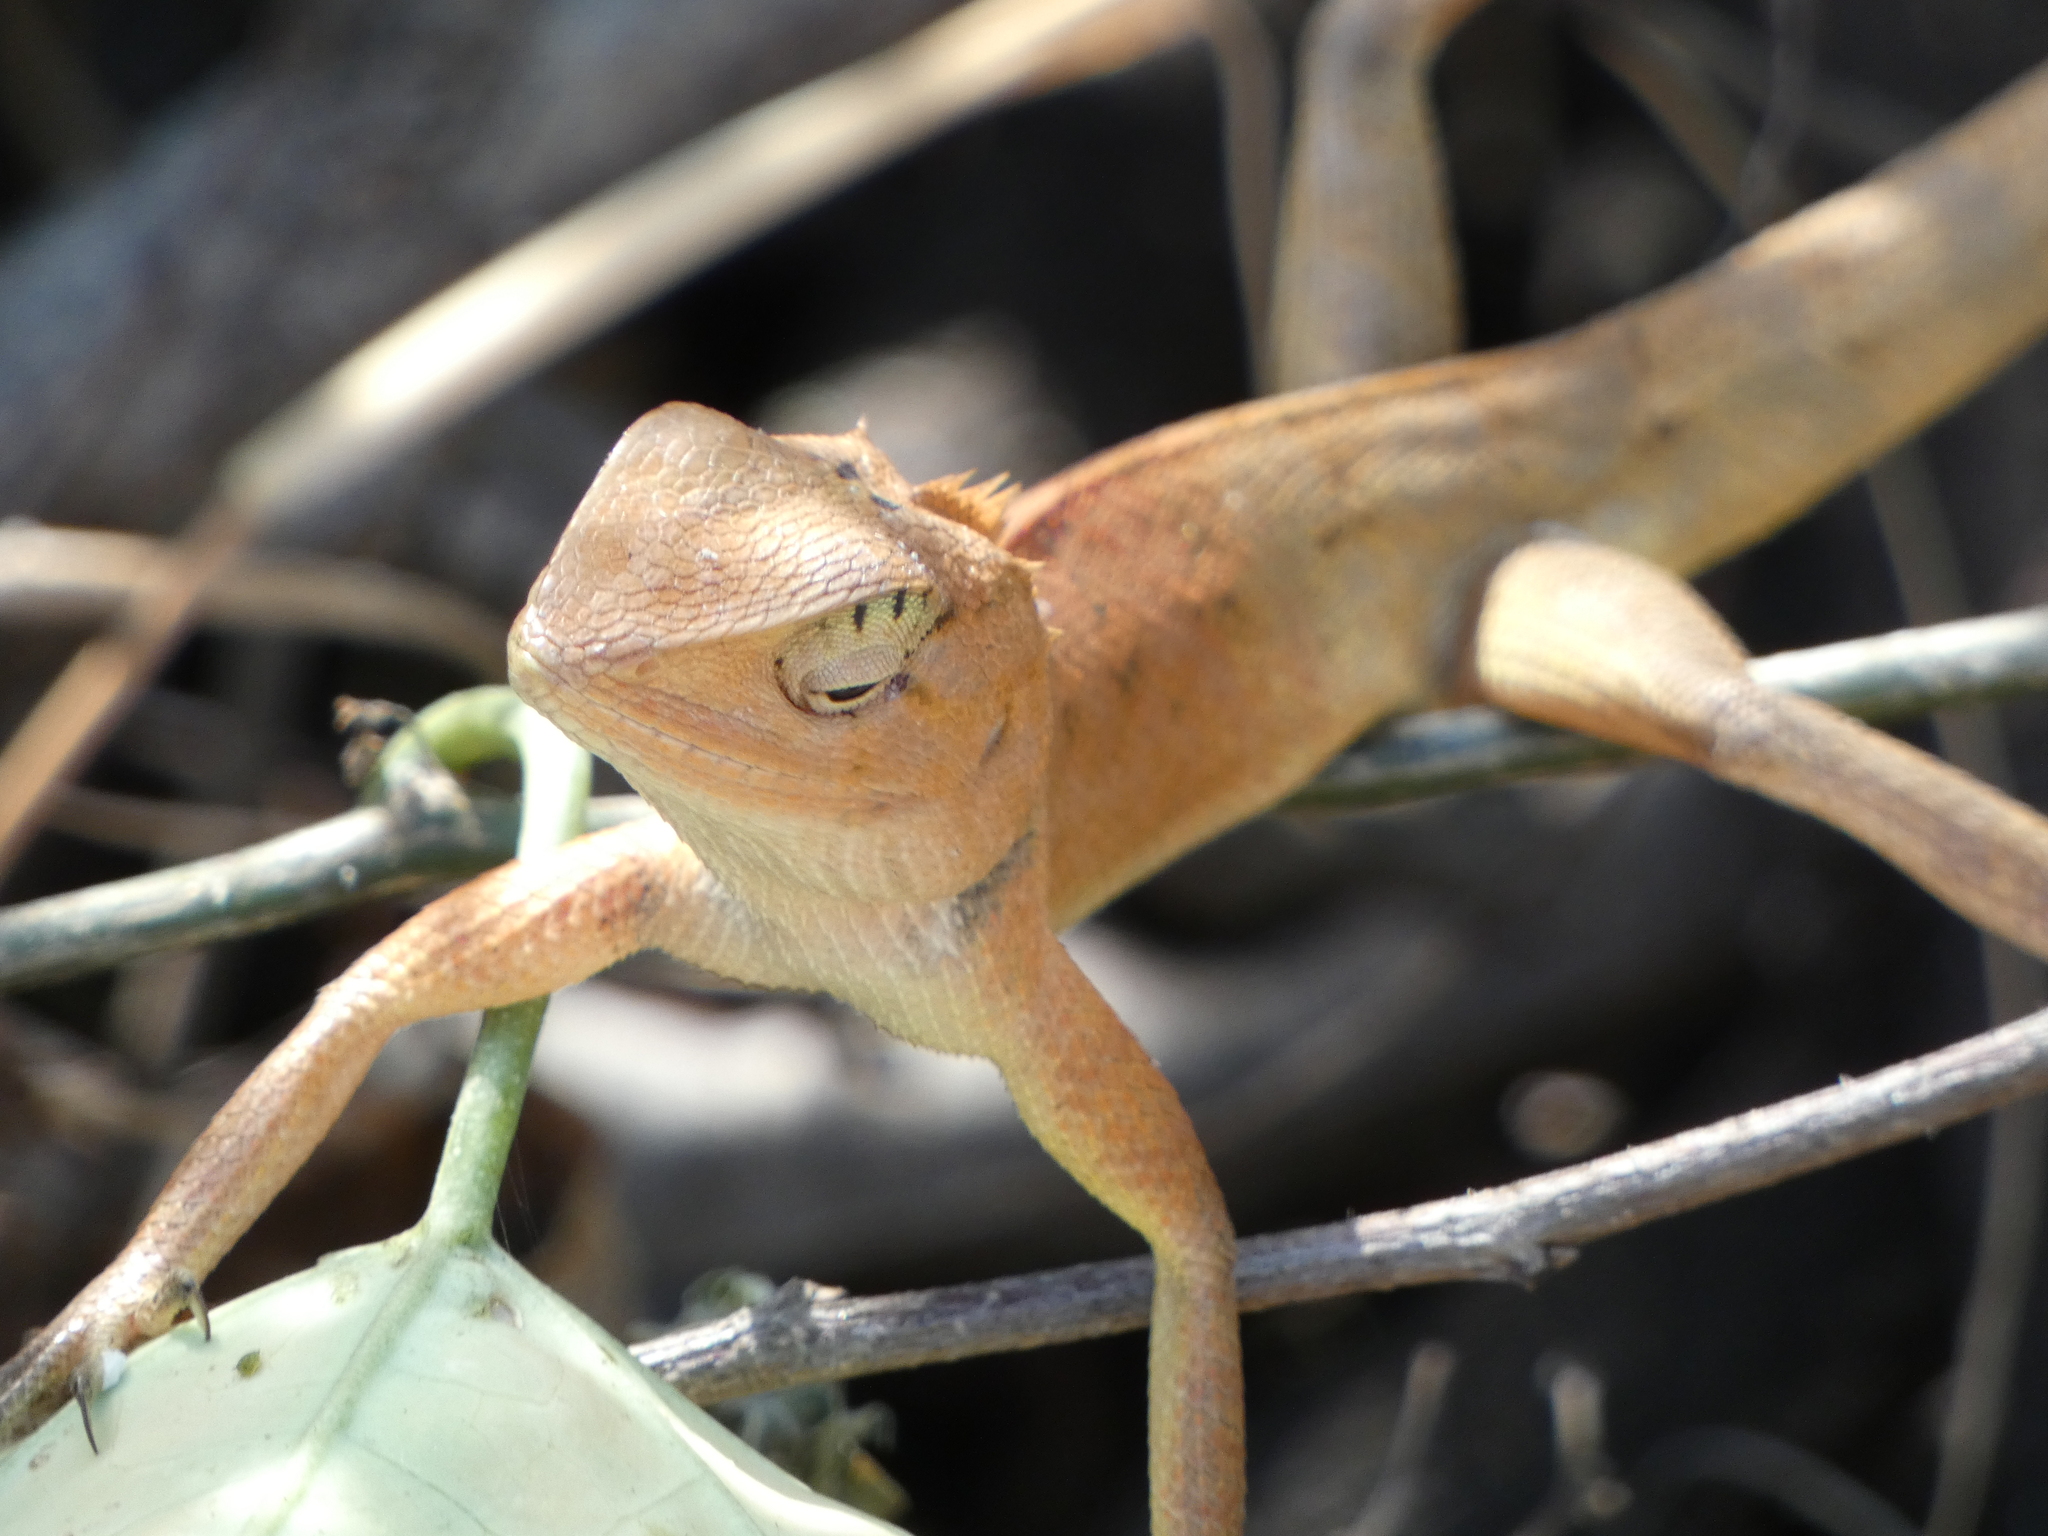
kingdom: Animalia
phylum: Chordata
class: Squamata
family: Agamidae
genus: Calotes
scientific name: Calotes versicolor
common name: Oriental garden lizard
